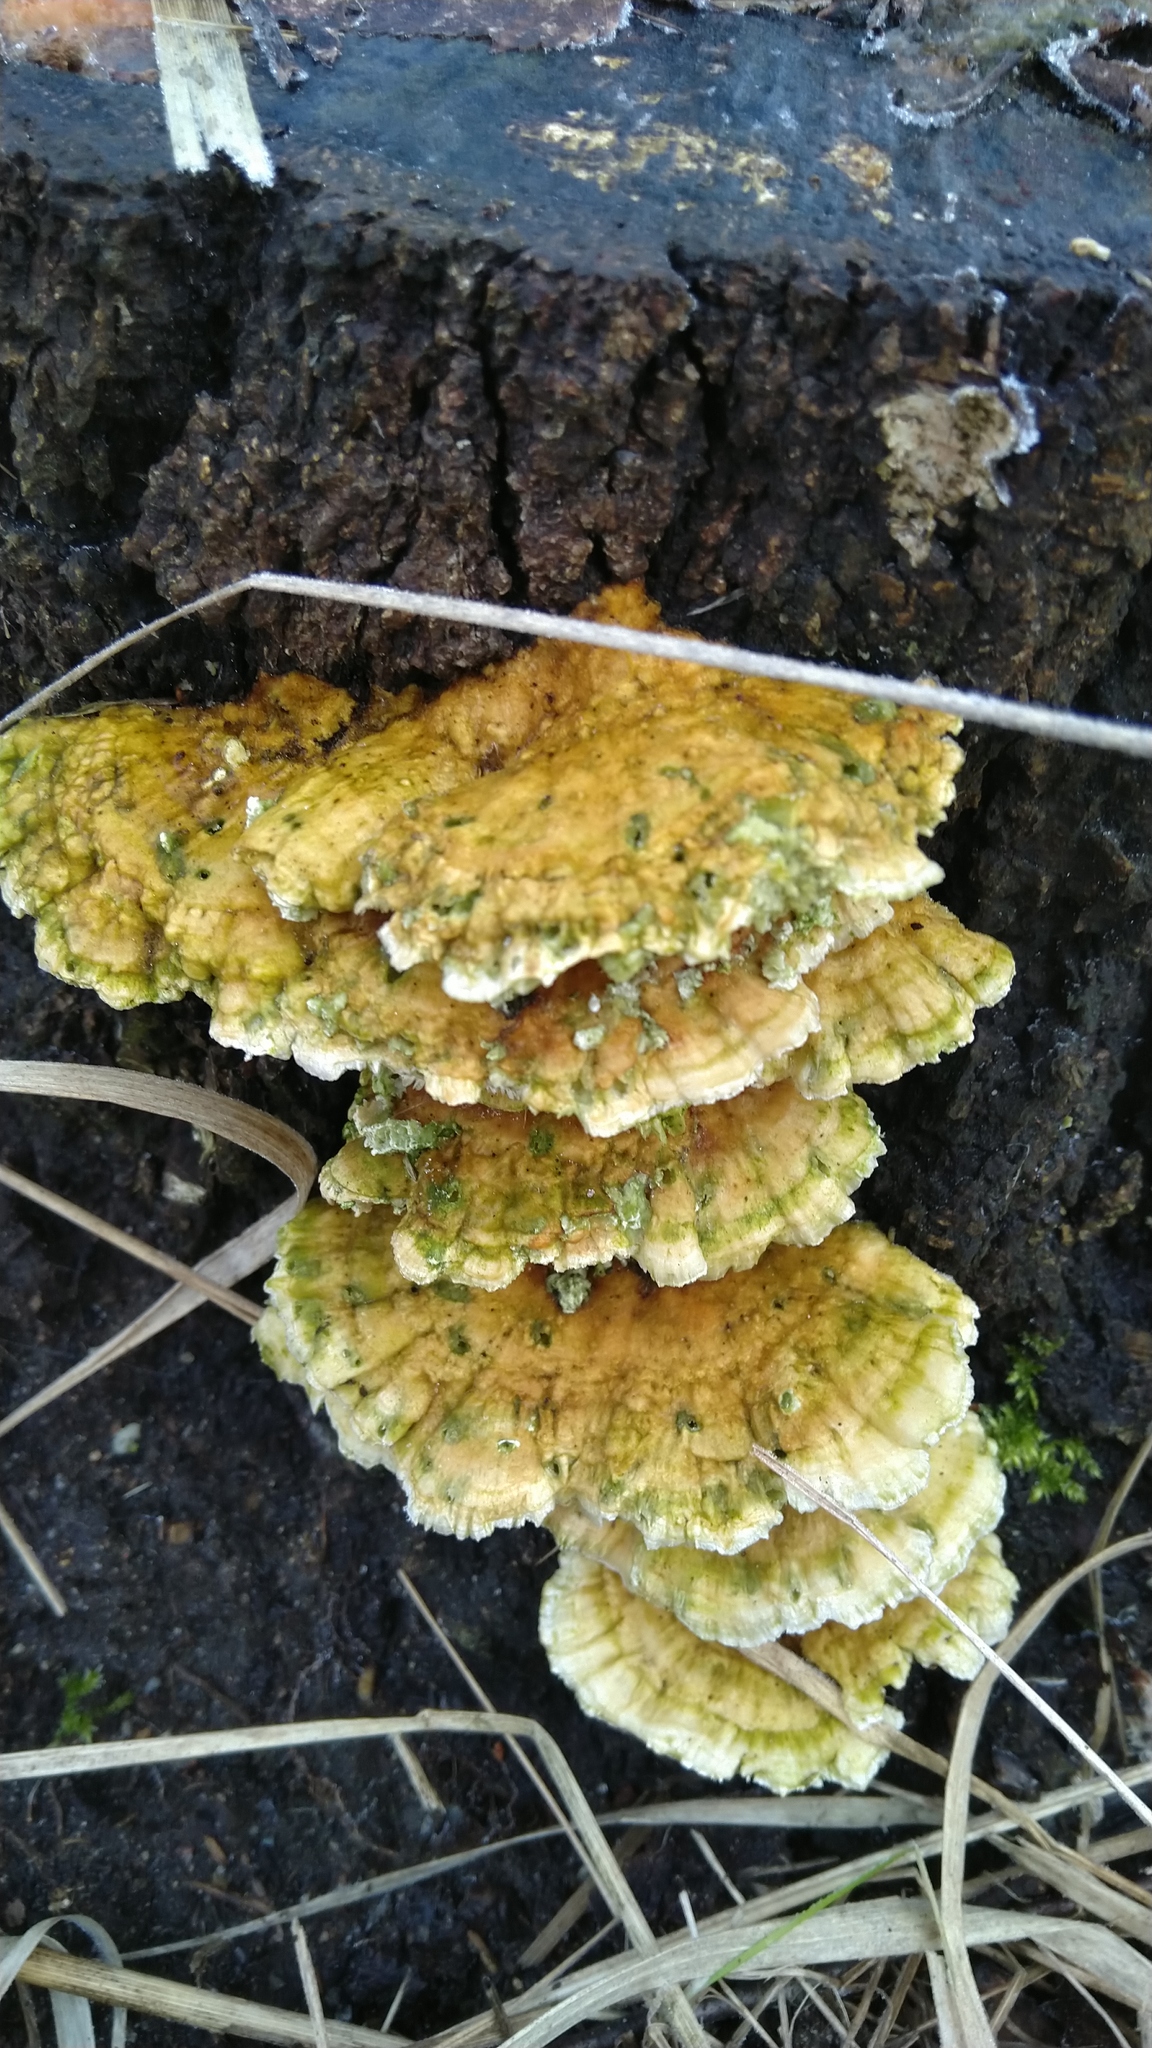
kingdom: Fungi
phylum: Basidiomycota
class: Agaricomycetes
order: Polyporales
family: Polyporaceae
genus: Trametes
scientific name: Trametes ochracea
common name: Ochre bracket
